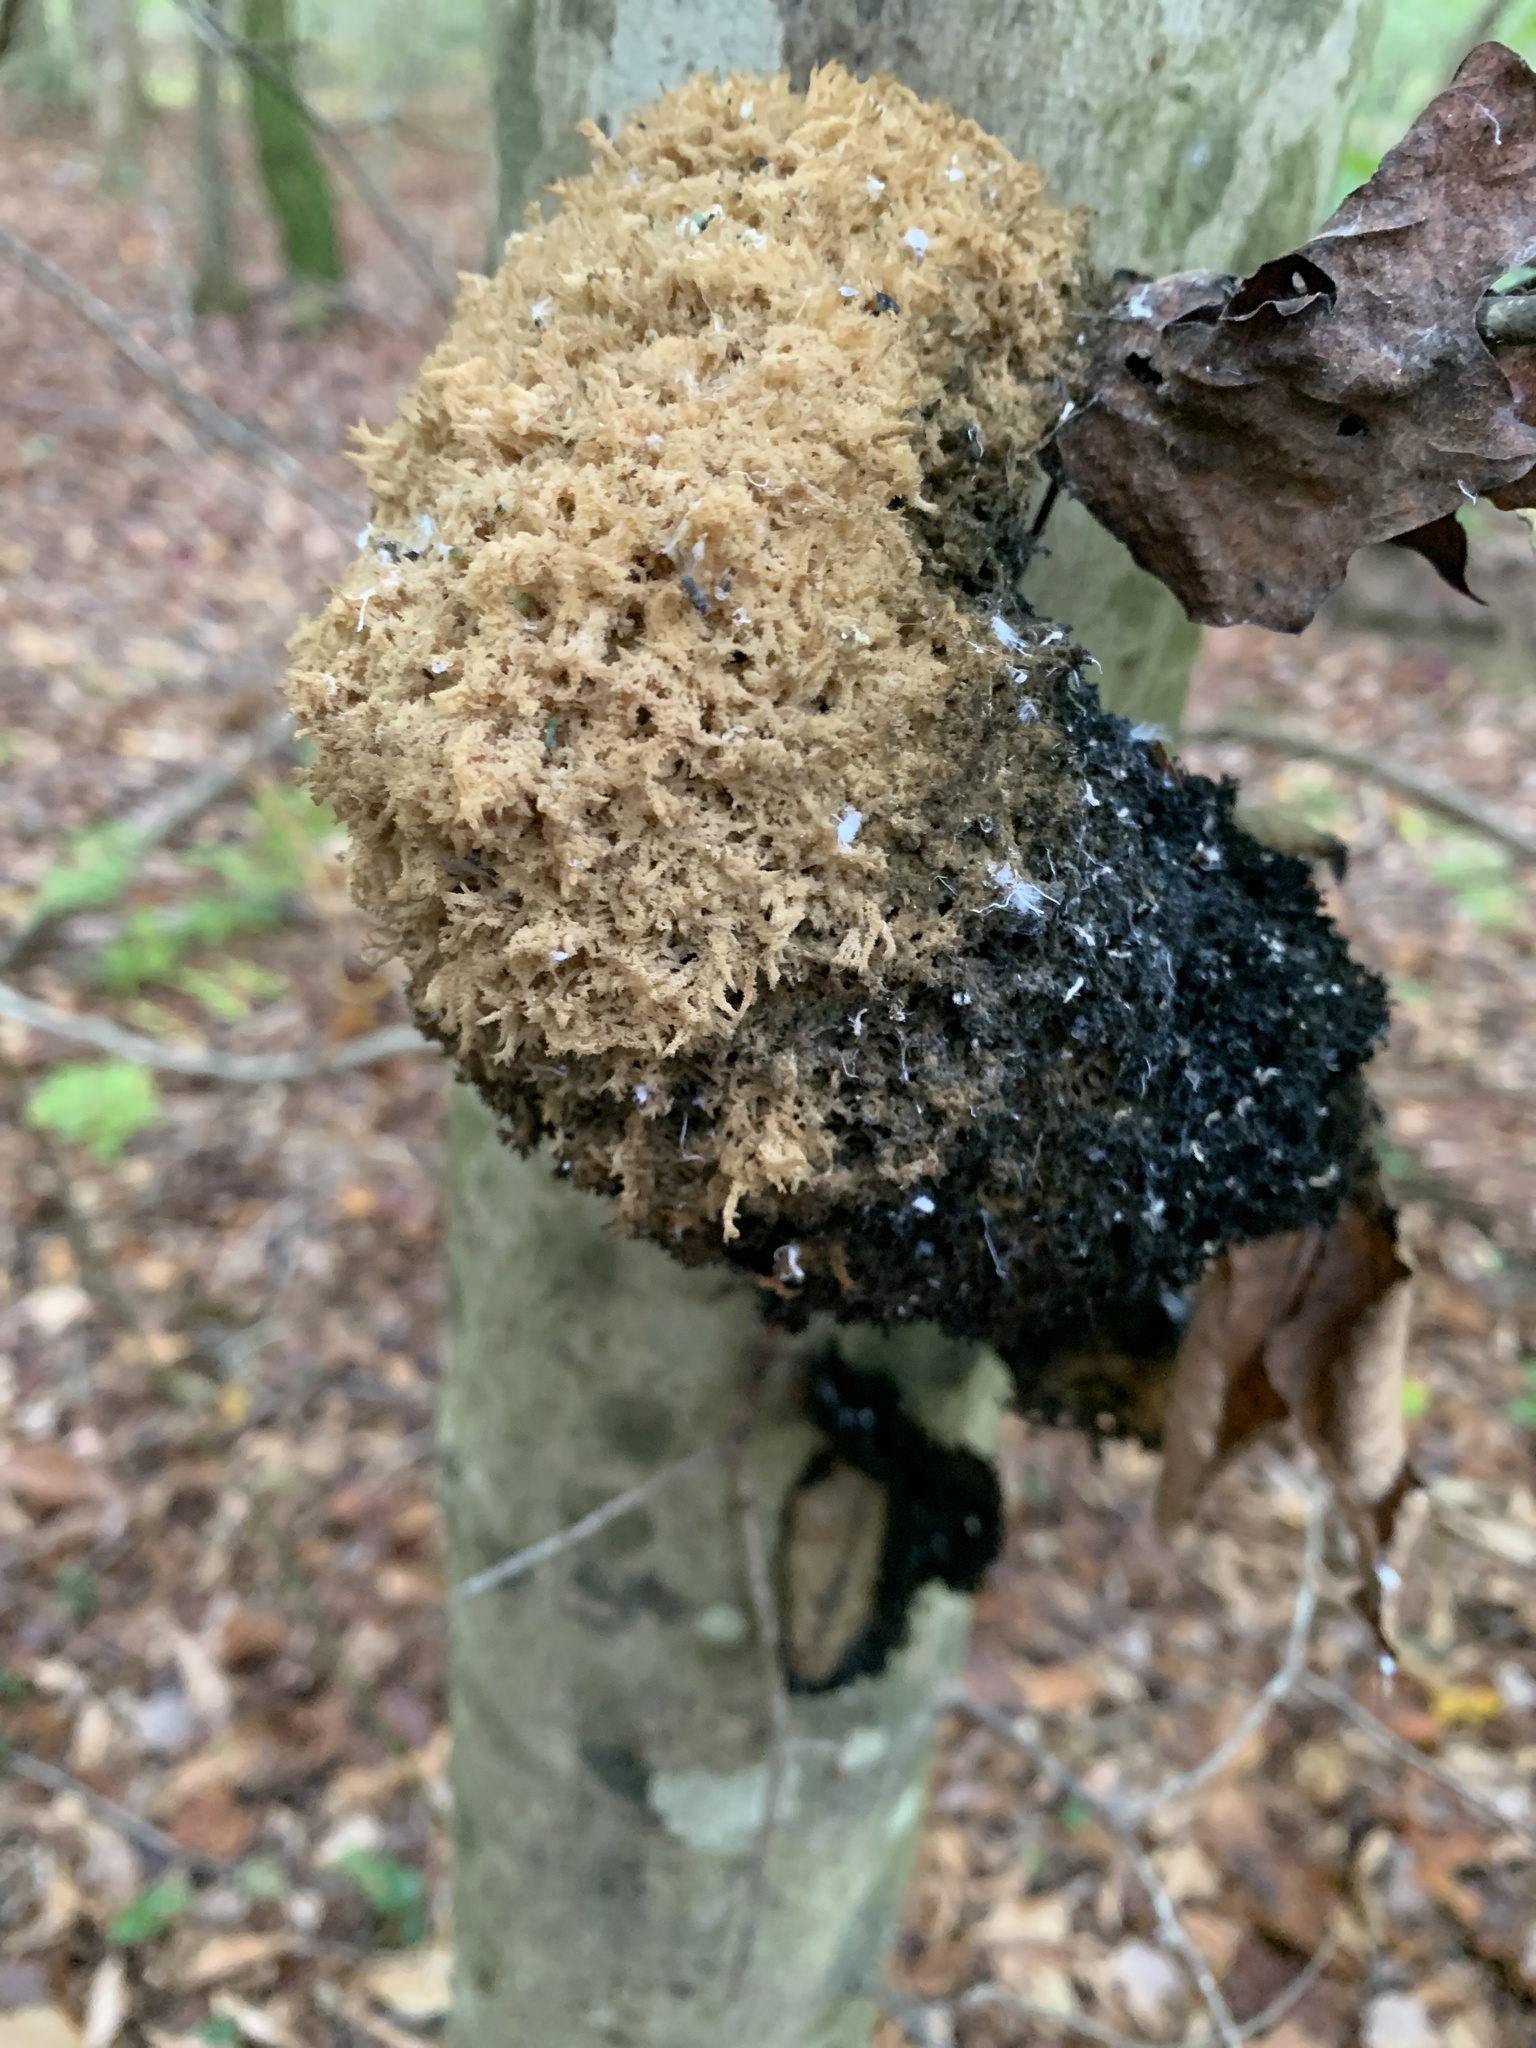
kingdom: Fungi
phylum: Ascomycota
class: Dothideomycetes
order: Capnodiales
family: Capnodiaceae
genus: Scorias
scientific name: Scorias spongiosa
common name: Black sooty mold
